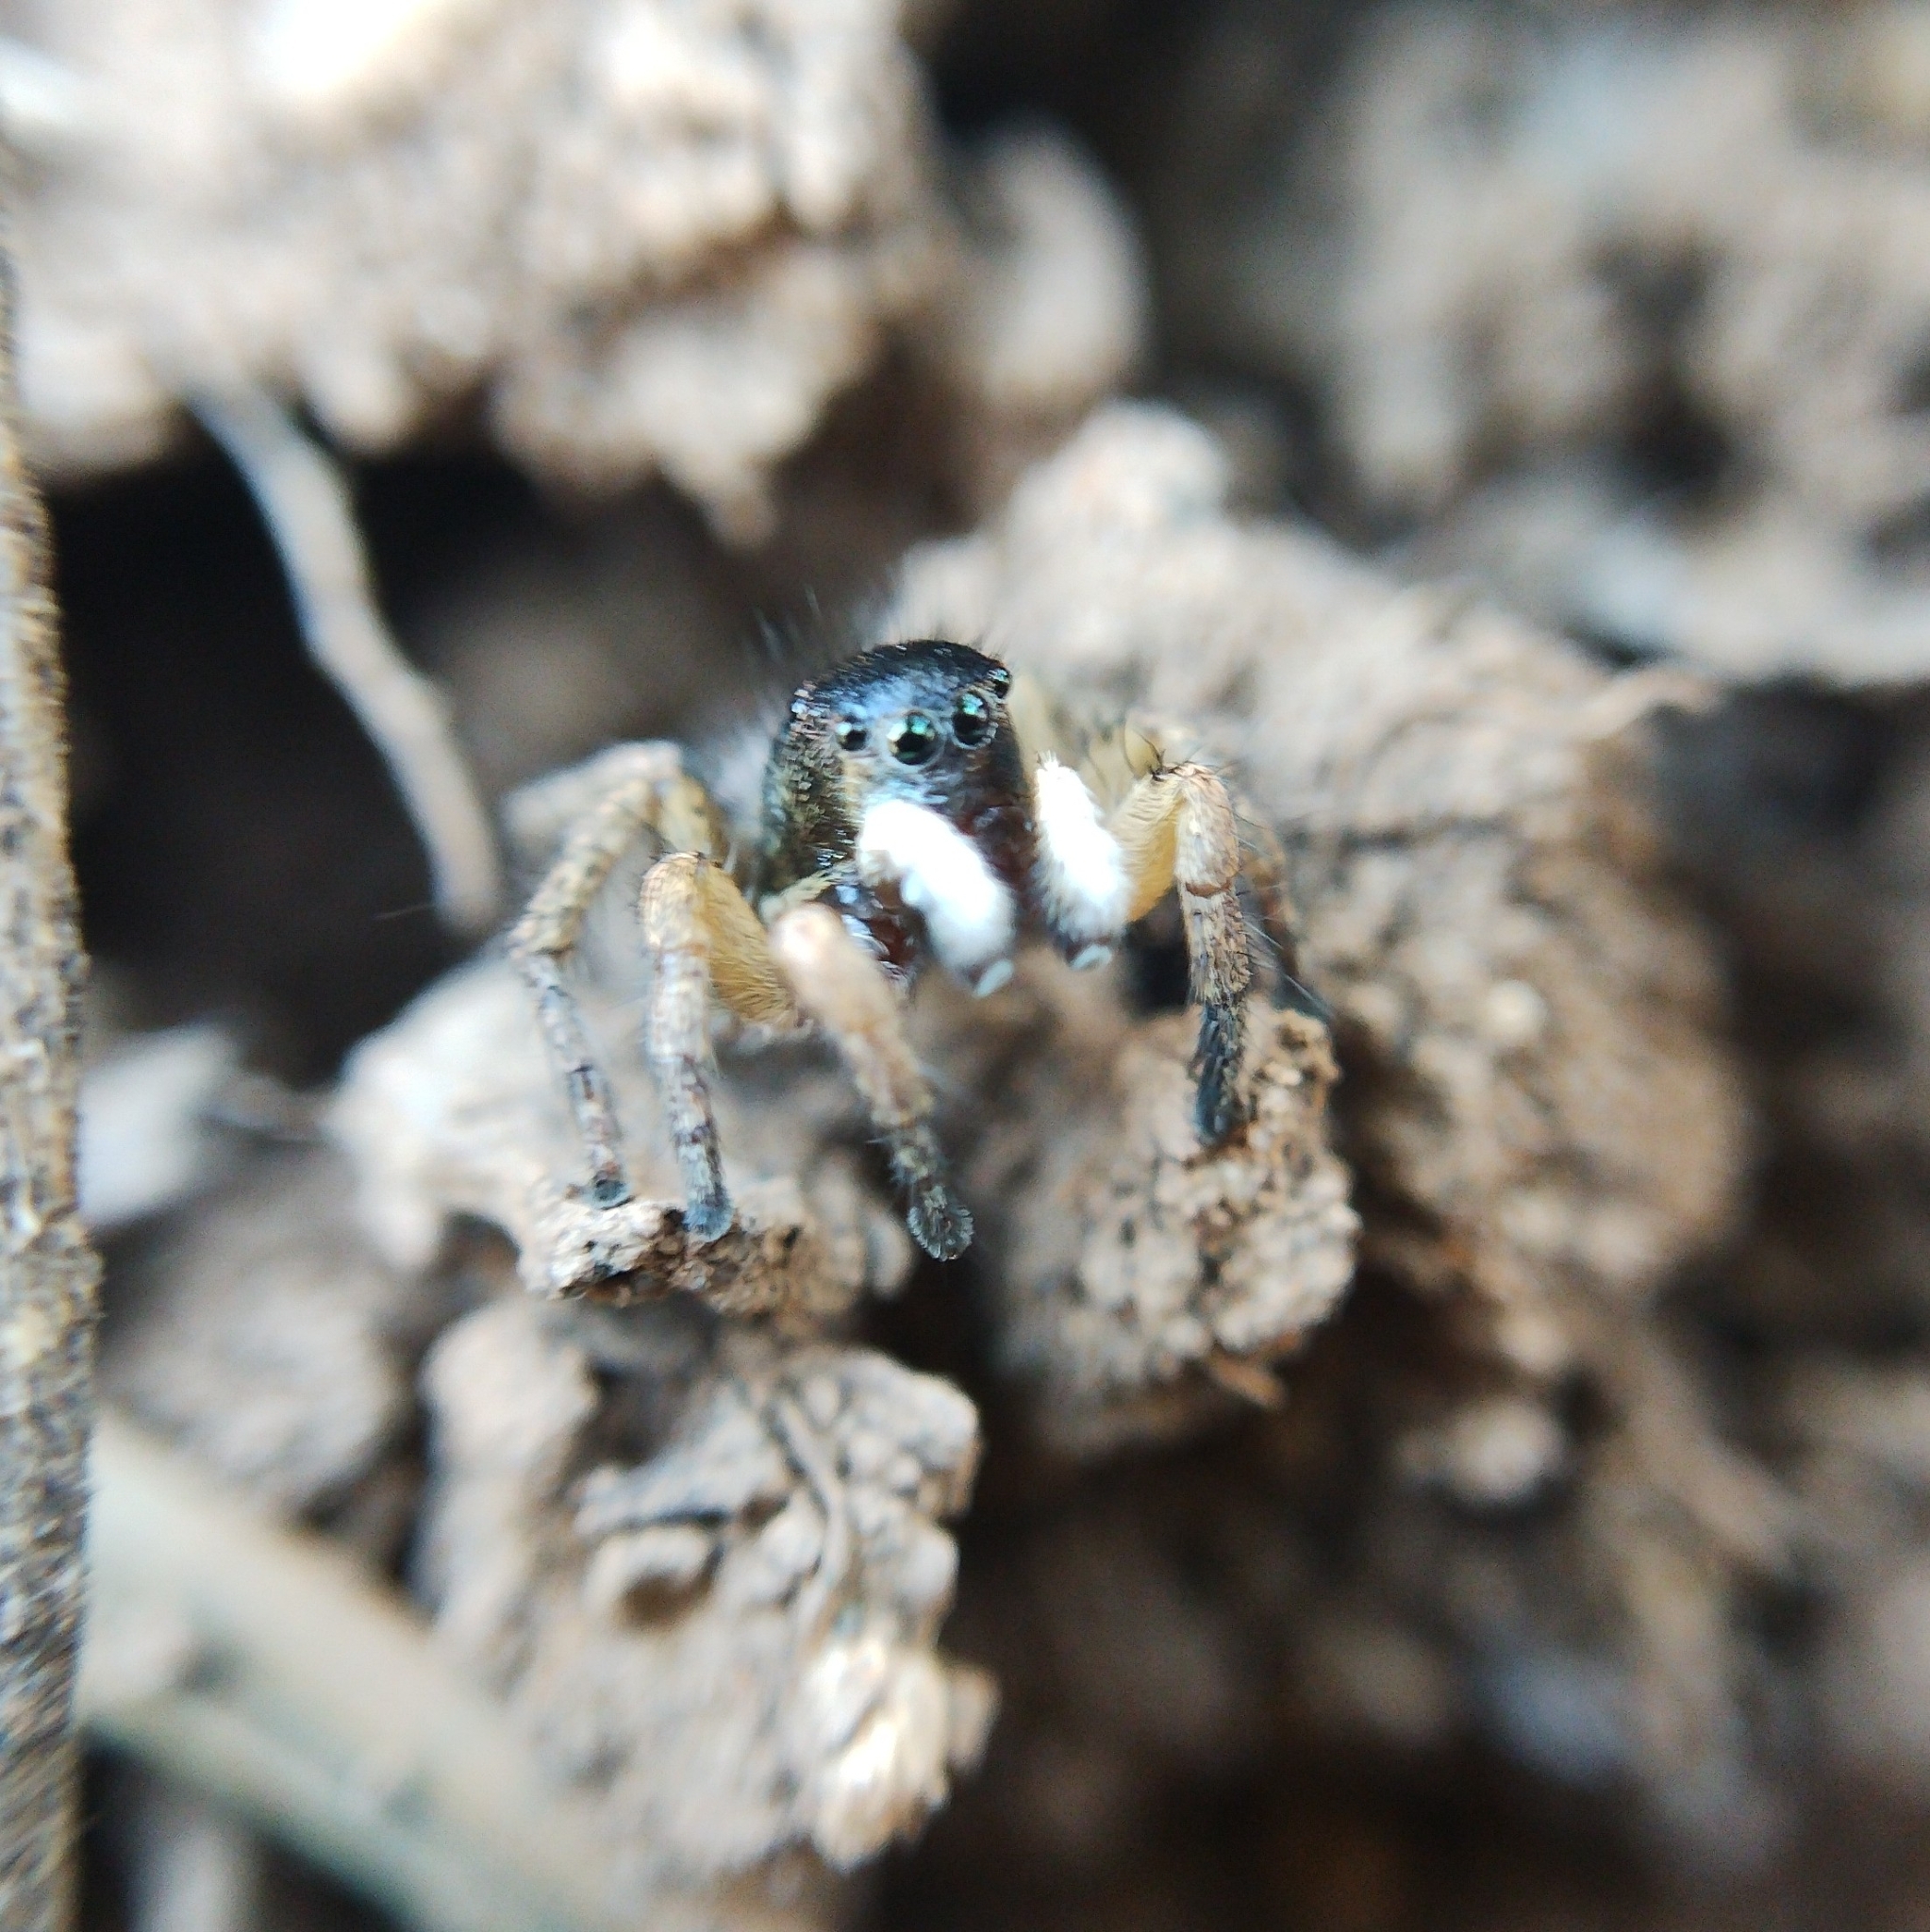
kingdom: Animalia
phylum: Arthropoda
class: Arachnida
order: Araneae
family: Salticidae
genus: Asianellus
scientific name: Asianellus festivus
